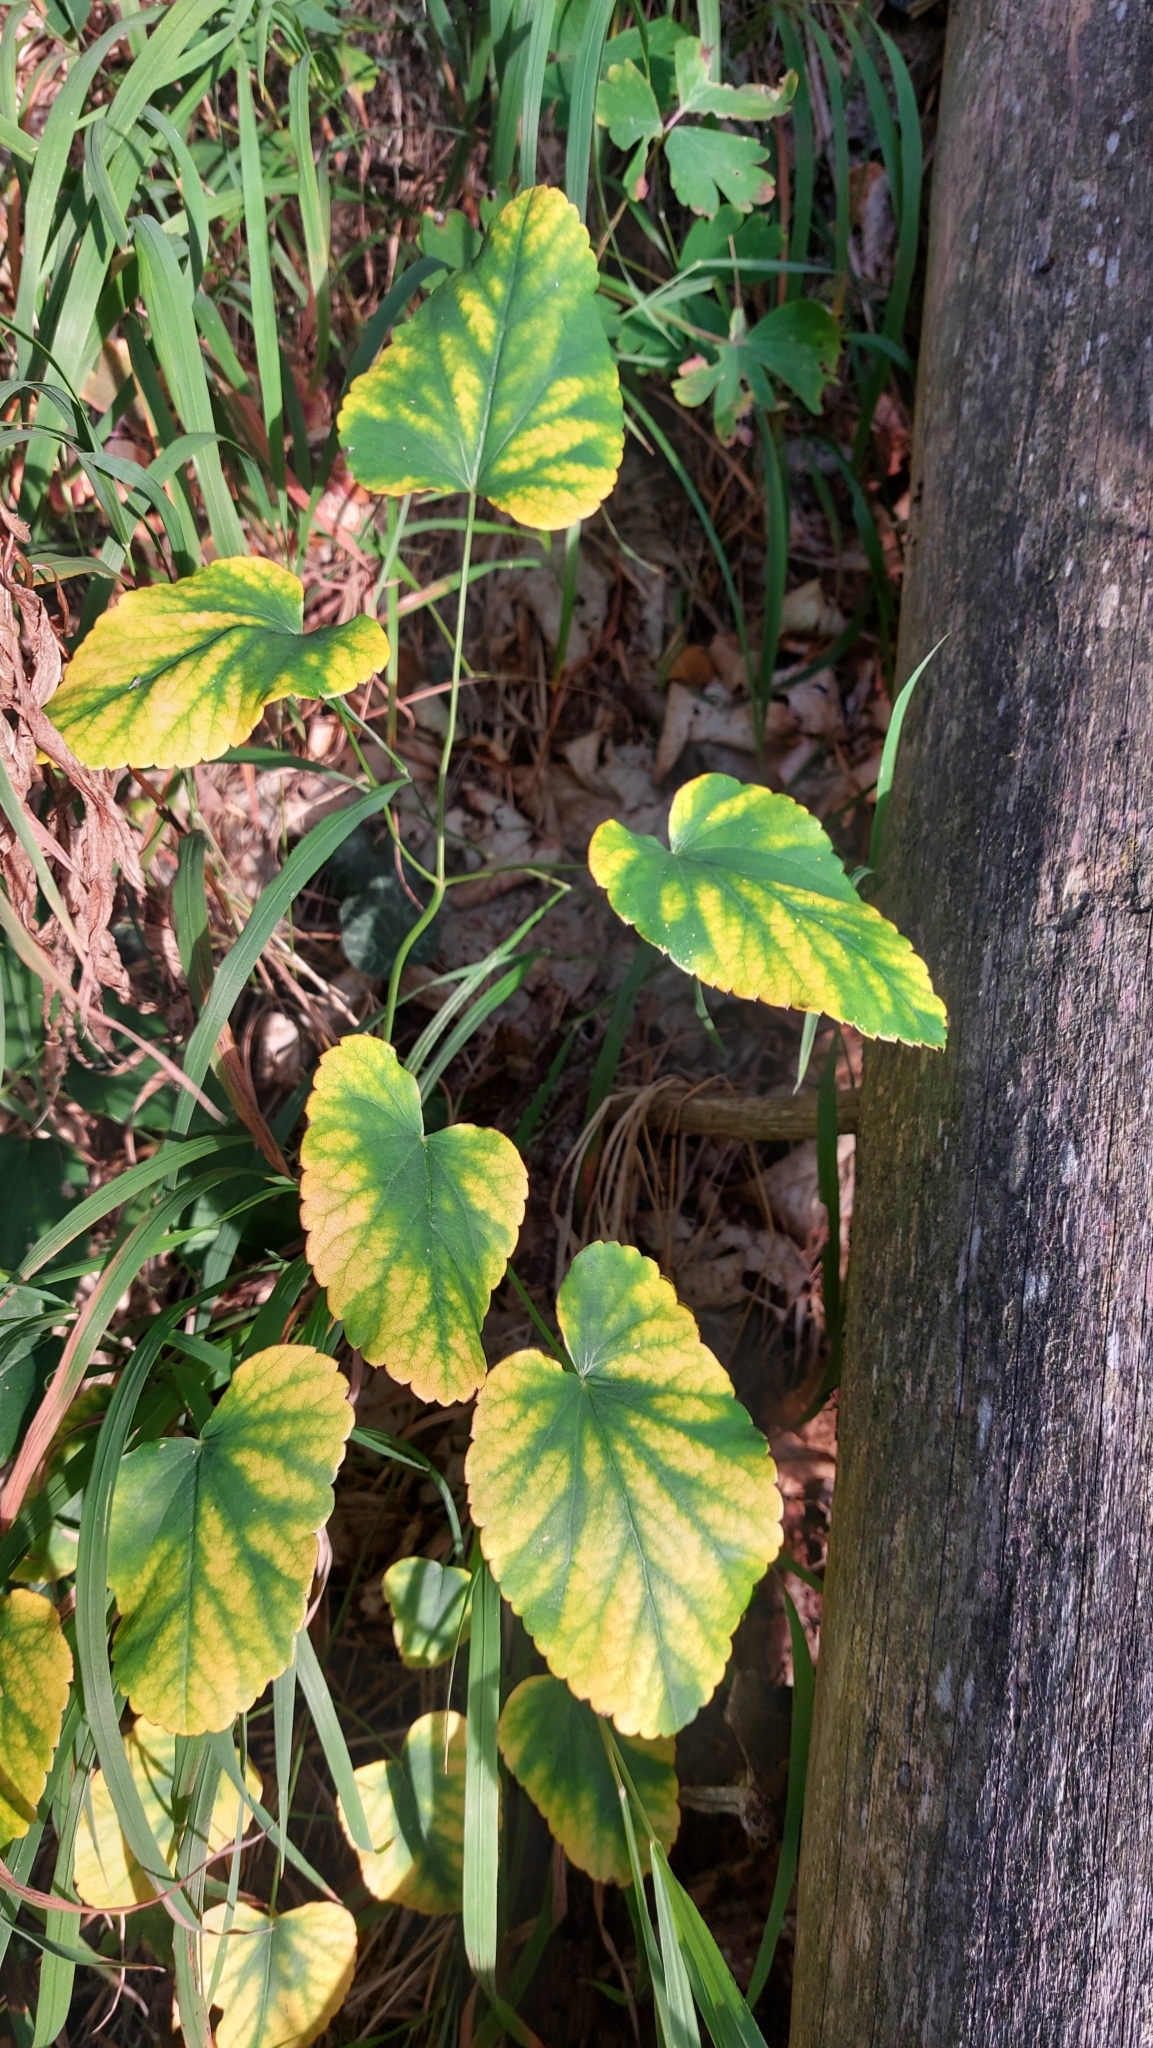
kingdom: Plantae
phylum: Tracheophyta
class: Magnoliopsida
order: Apiales
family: Apiaceae
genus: Laserpitium
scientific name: Laserpitium latifolium
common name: Broadleaf sermountain
